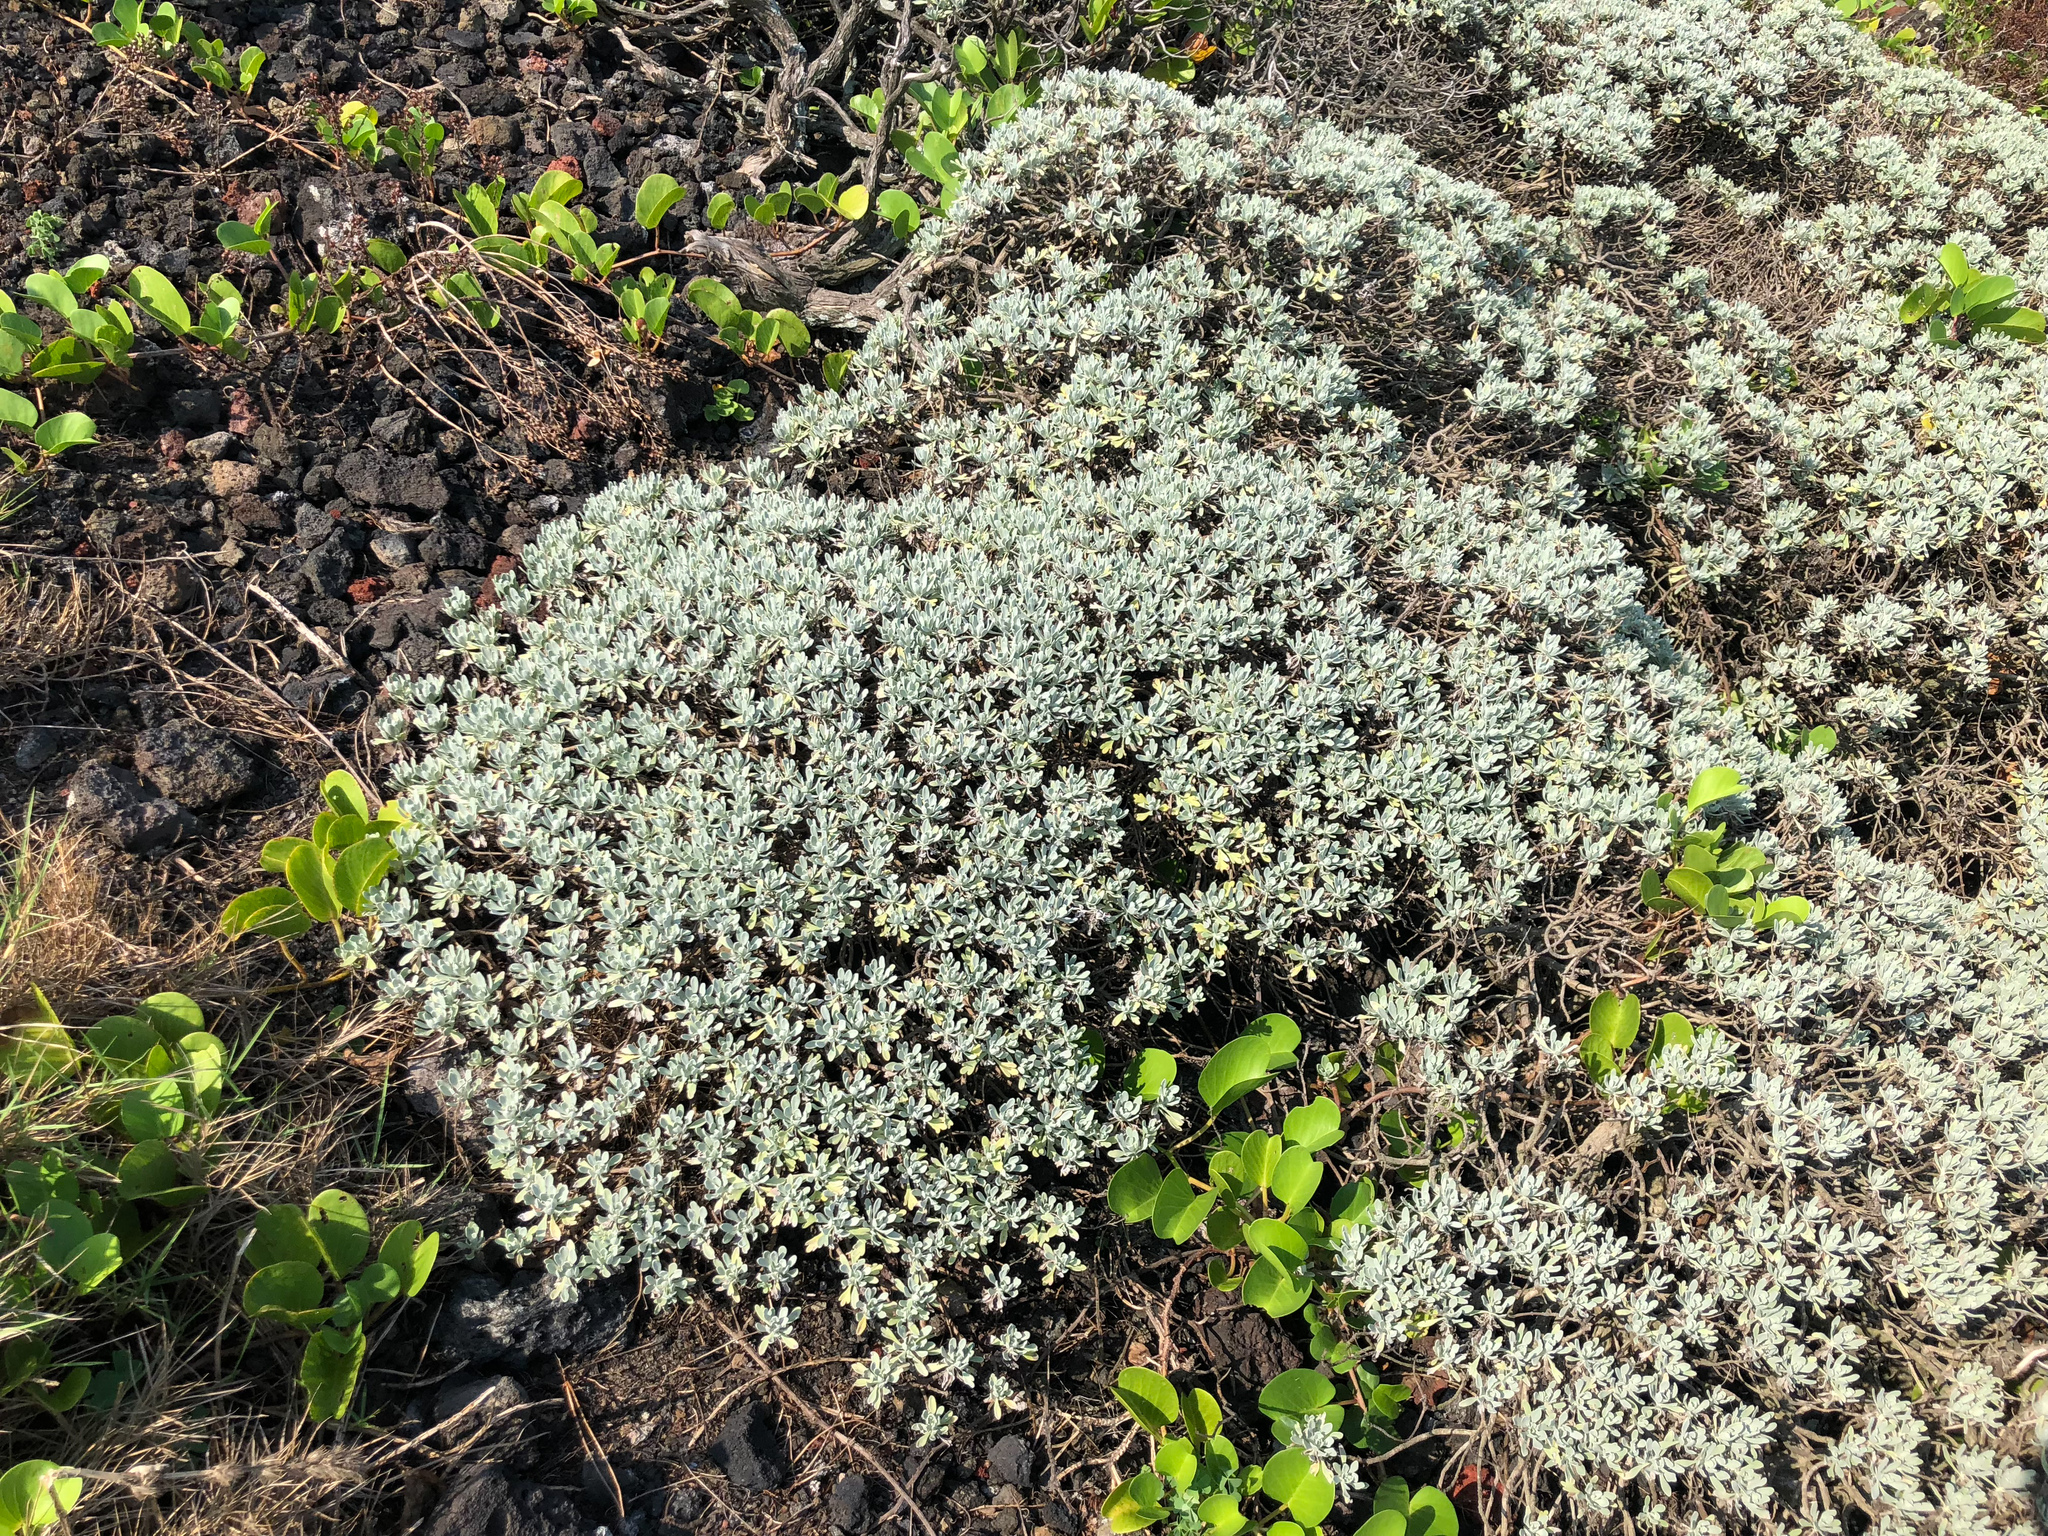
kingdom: Plantae
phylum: Tracheophyta
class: Magnoliopsida
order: Asterales
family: Asteraceae
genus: Crossostephium
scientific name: Crossostephium chinense
